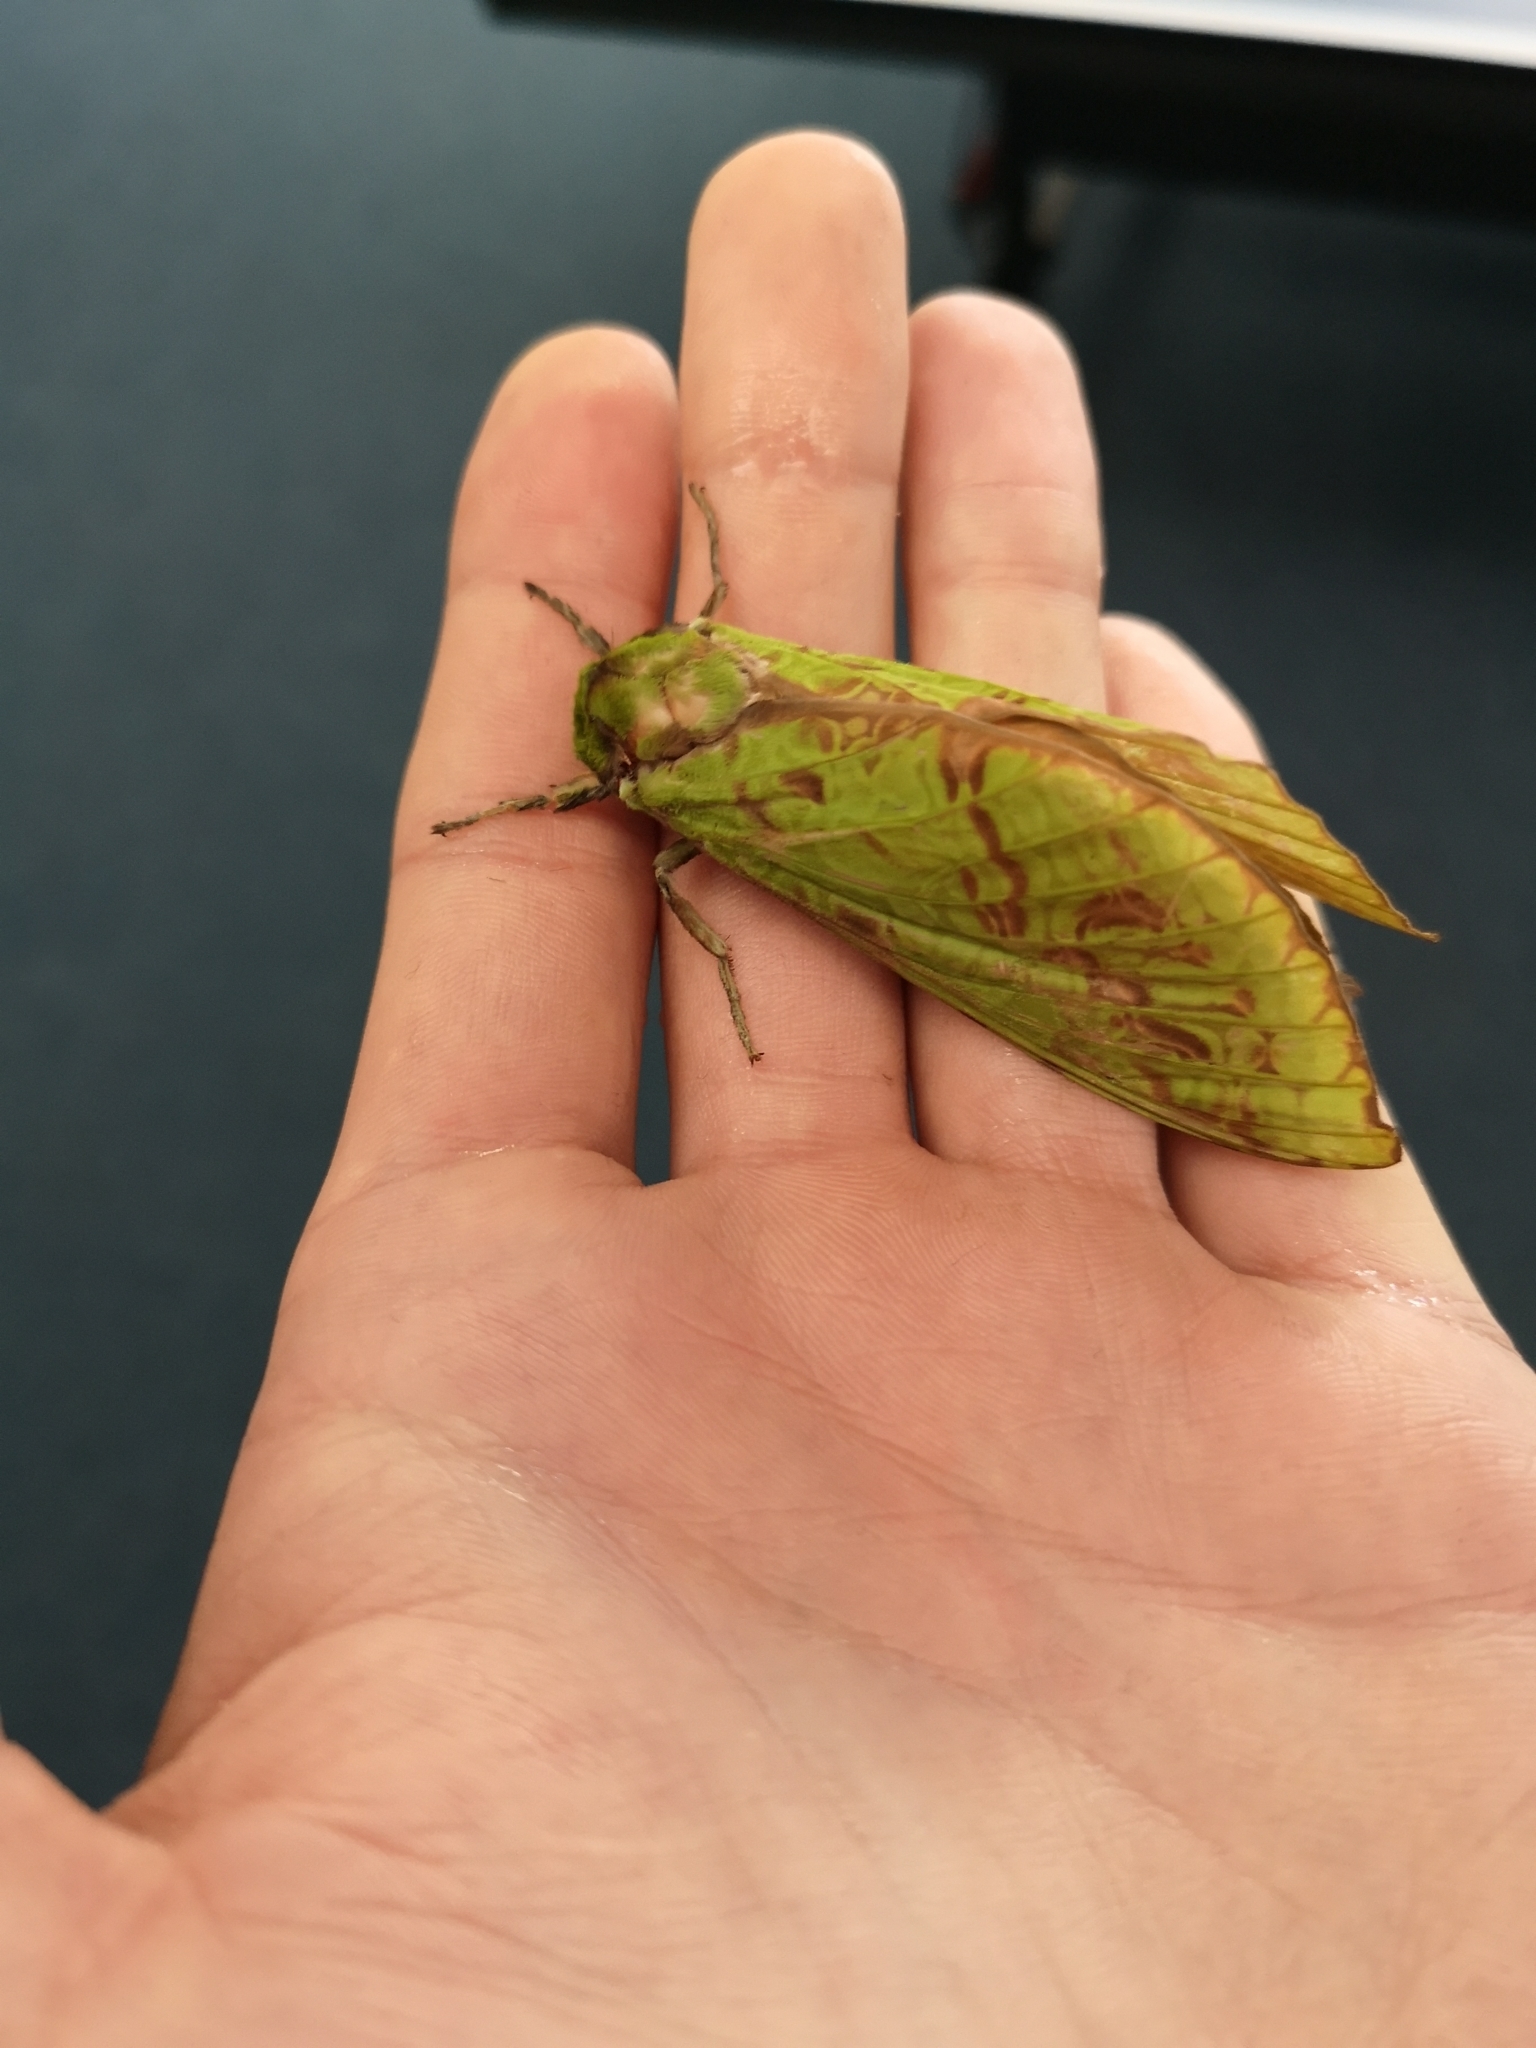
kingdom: Animalia
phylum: Arthropoda
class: Insecta
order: Lepidoptera
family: Hepialidae
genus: Aenetus
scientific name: Aenetus virescens
